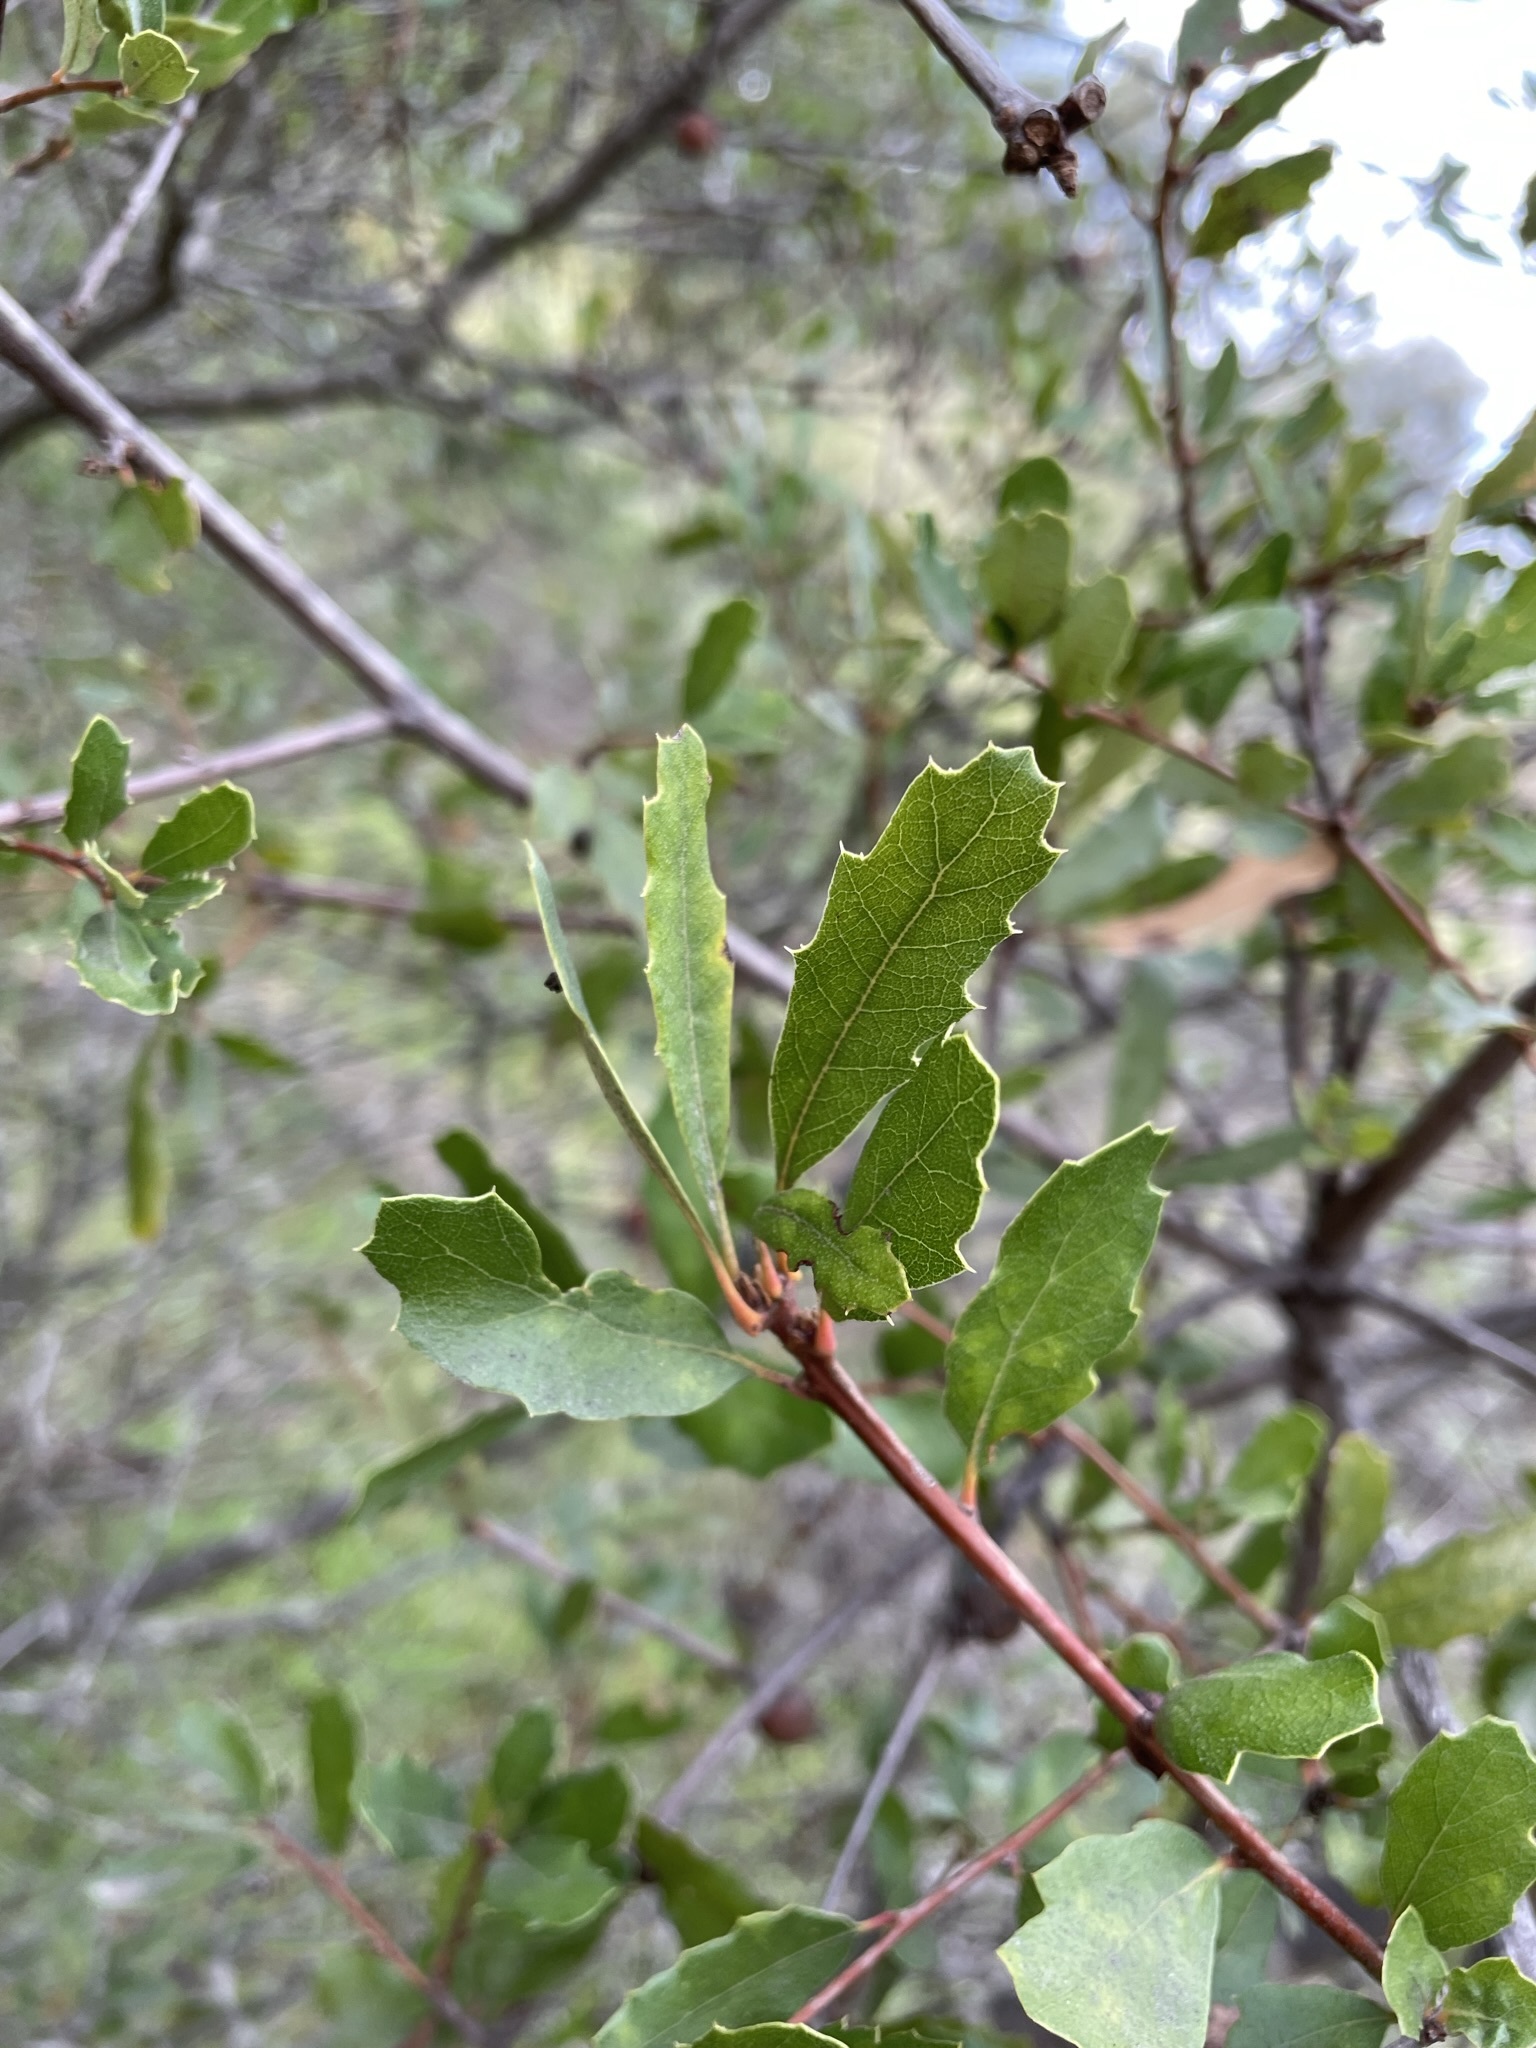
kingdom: Plantae
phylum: Tracheophyta
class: Magnoliopsida
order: Fagales
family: Fagaceae
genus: Quercus
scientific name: Quercus berberidifolia
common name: California scrub oak
